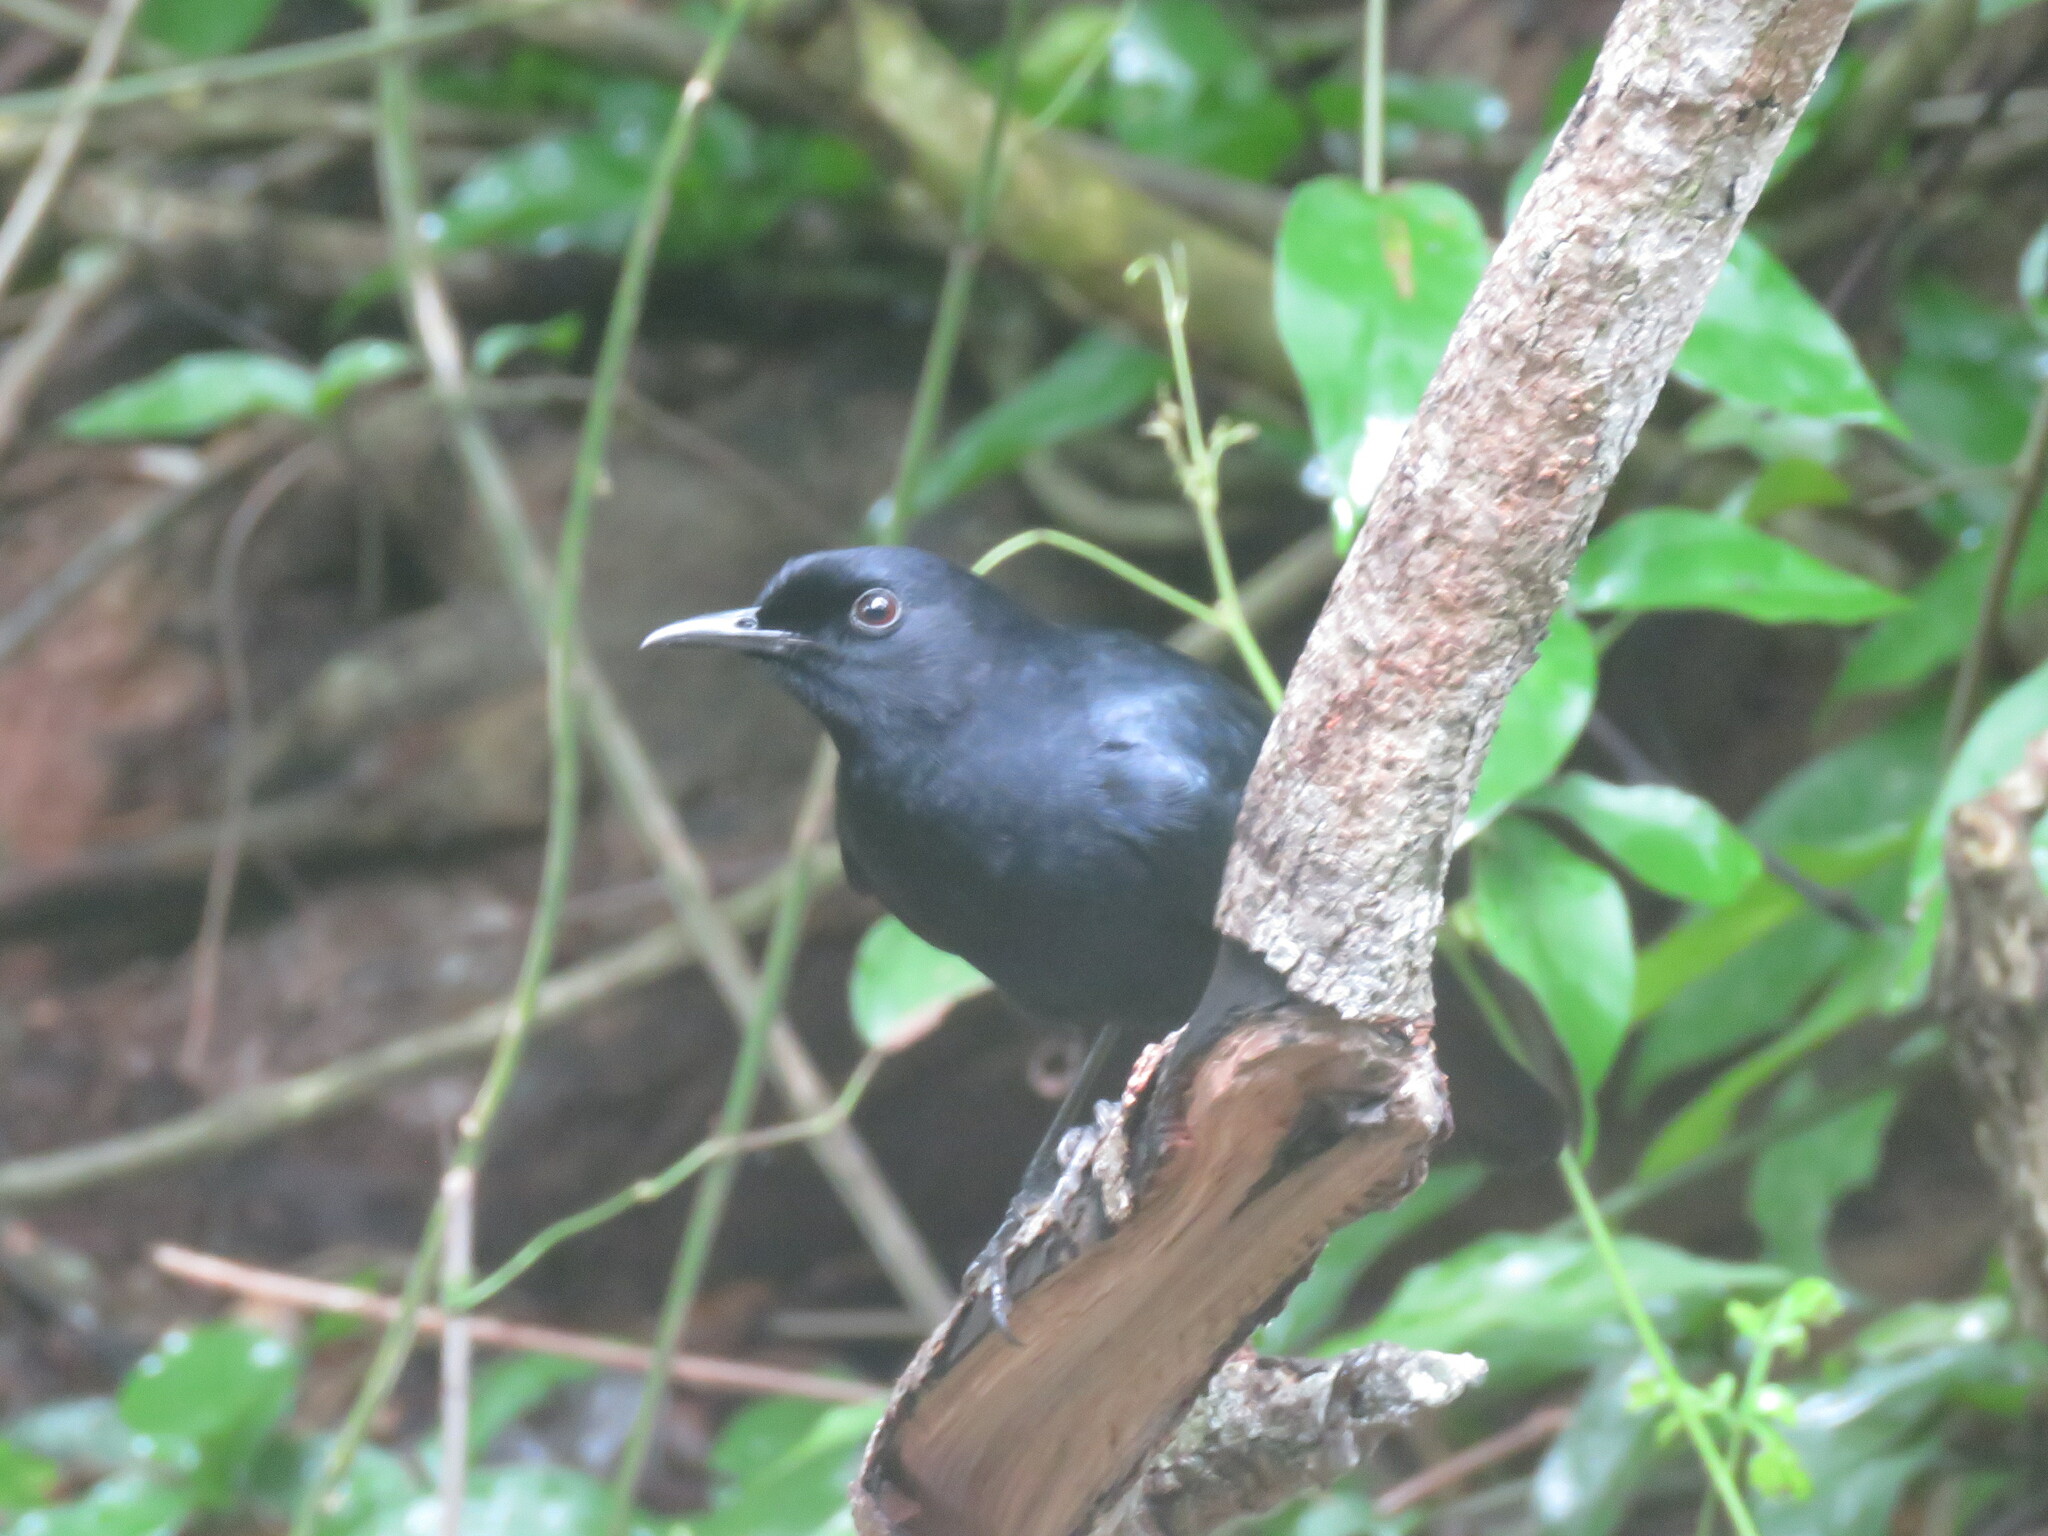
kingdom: Animalia
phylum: Chordata
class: Aves
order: Passeriformes
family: Mimidae
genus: Melanoptila
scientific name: Melanoptila glabrirostris
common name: Black catbird
